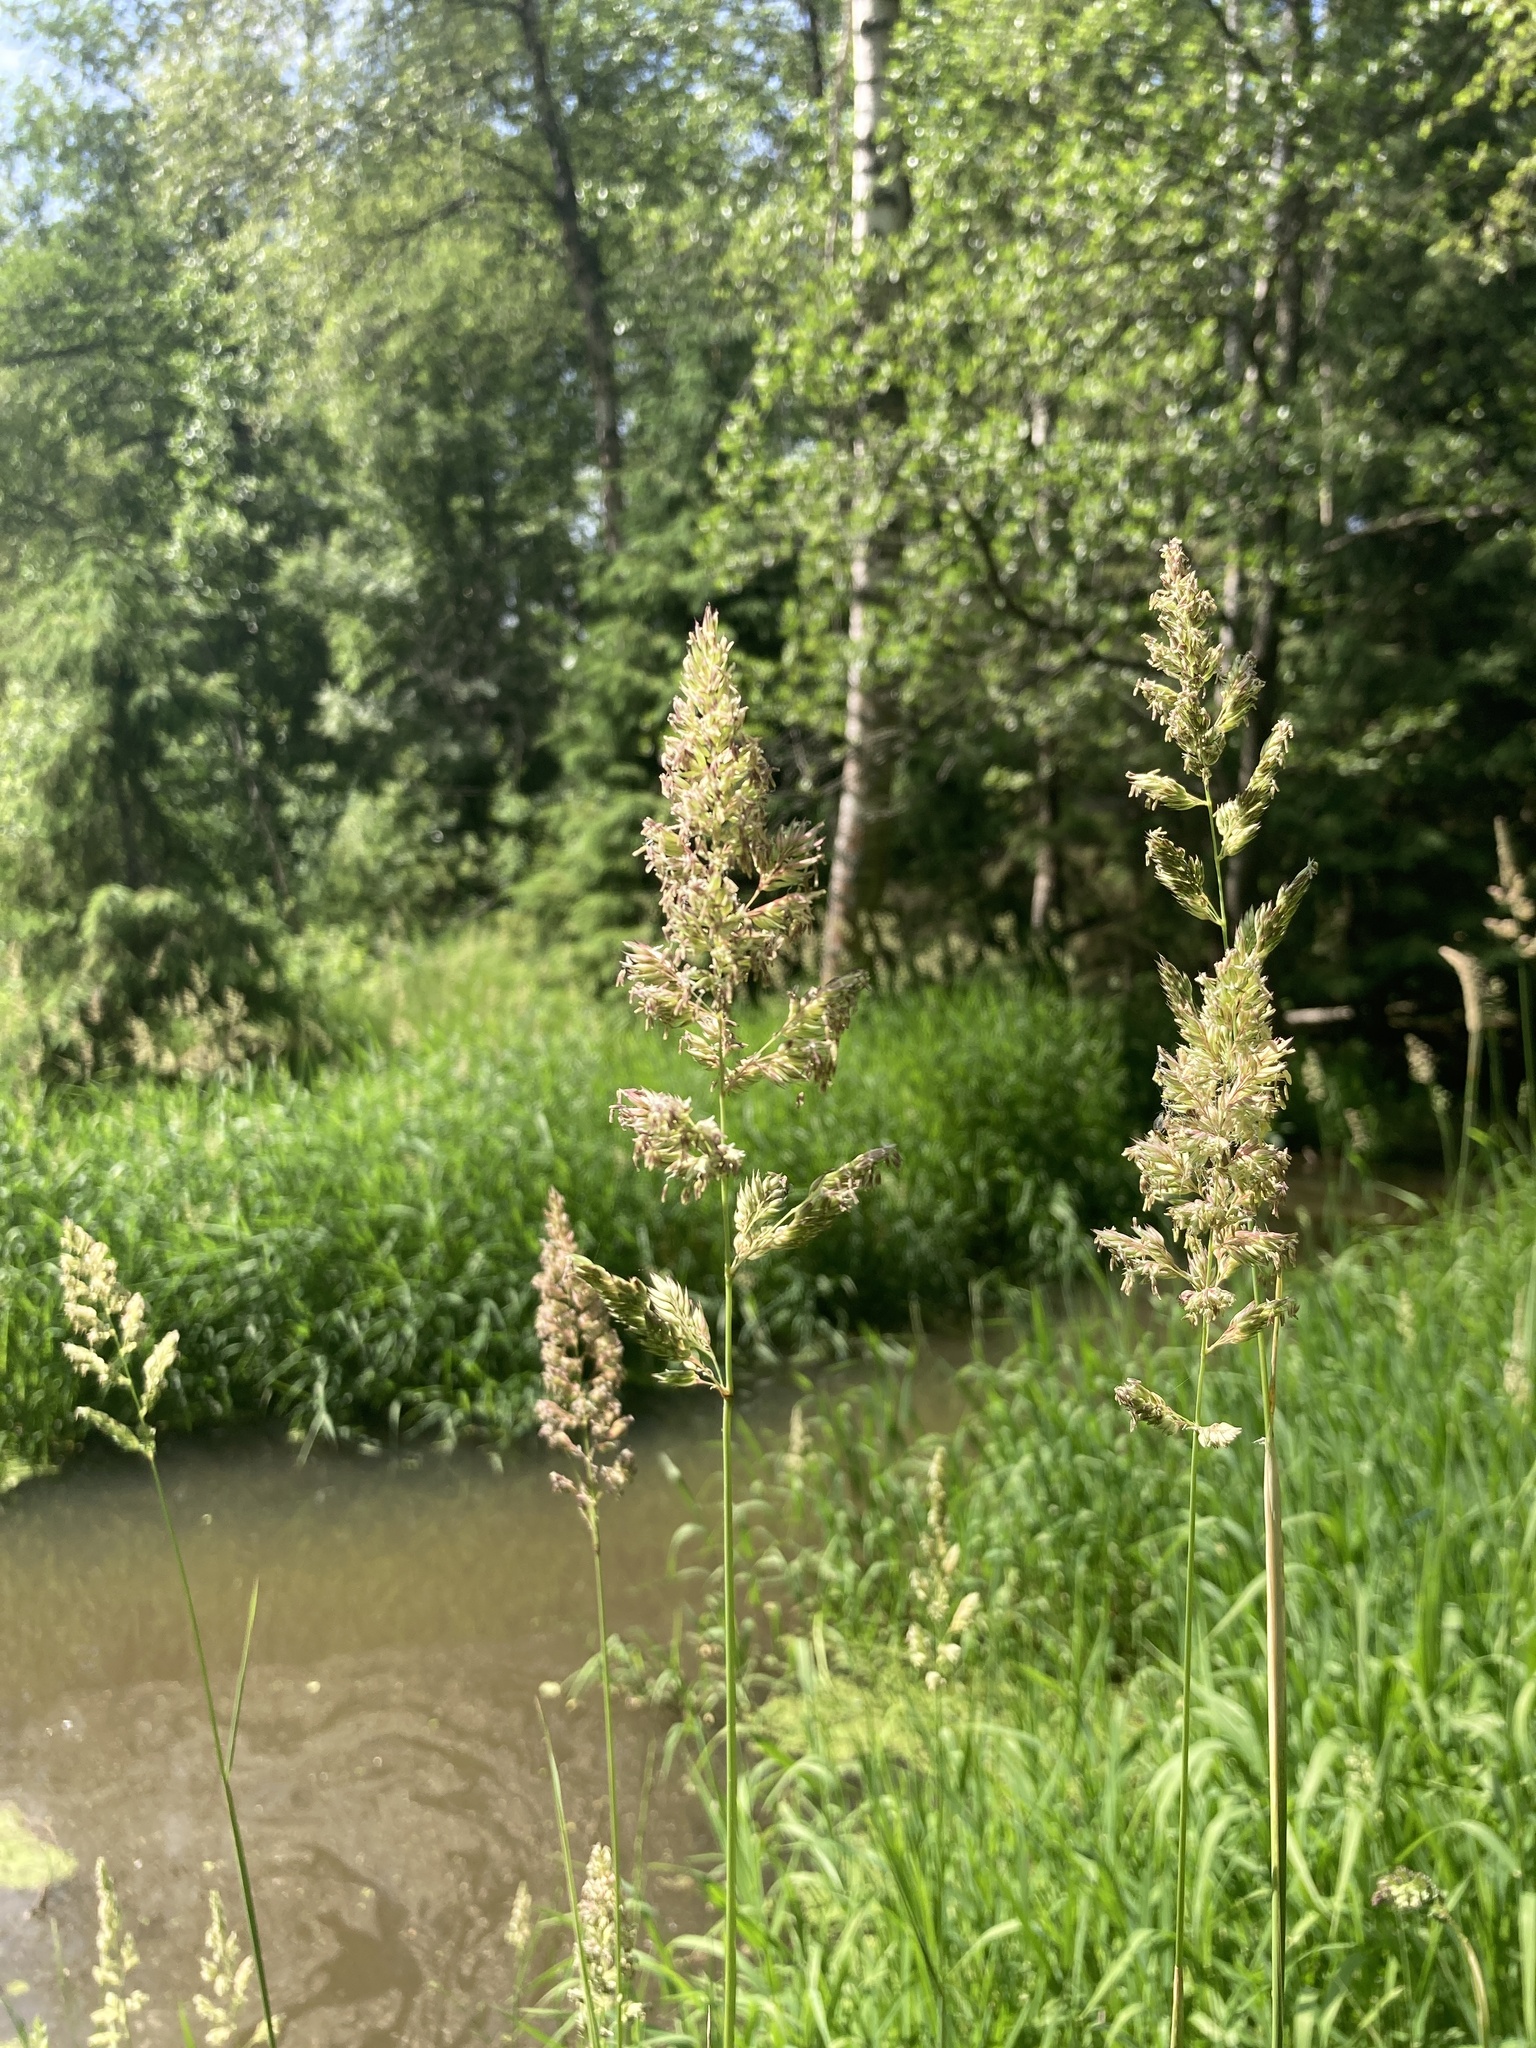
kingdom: Plantae
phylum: Tracheophyta
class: Liliopsida
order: Poales
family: Poaceae
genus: Phalaris
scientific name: Phalaris arundinacea
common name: Reed canary-grass
